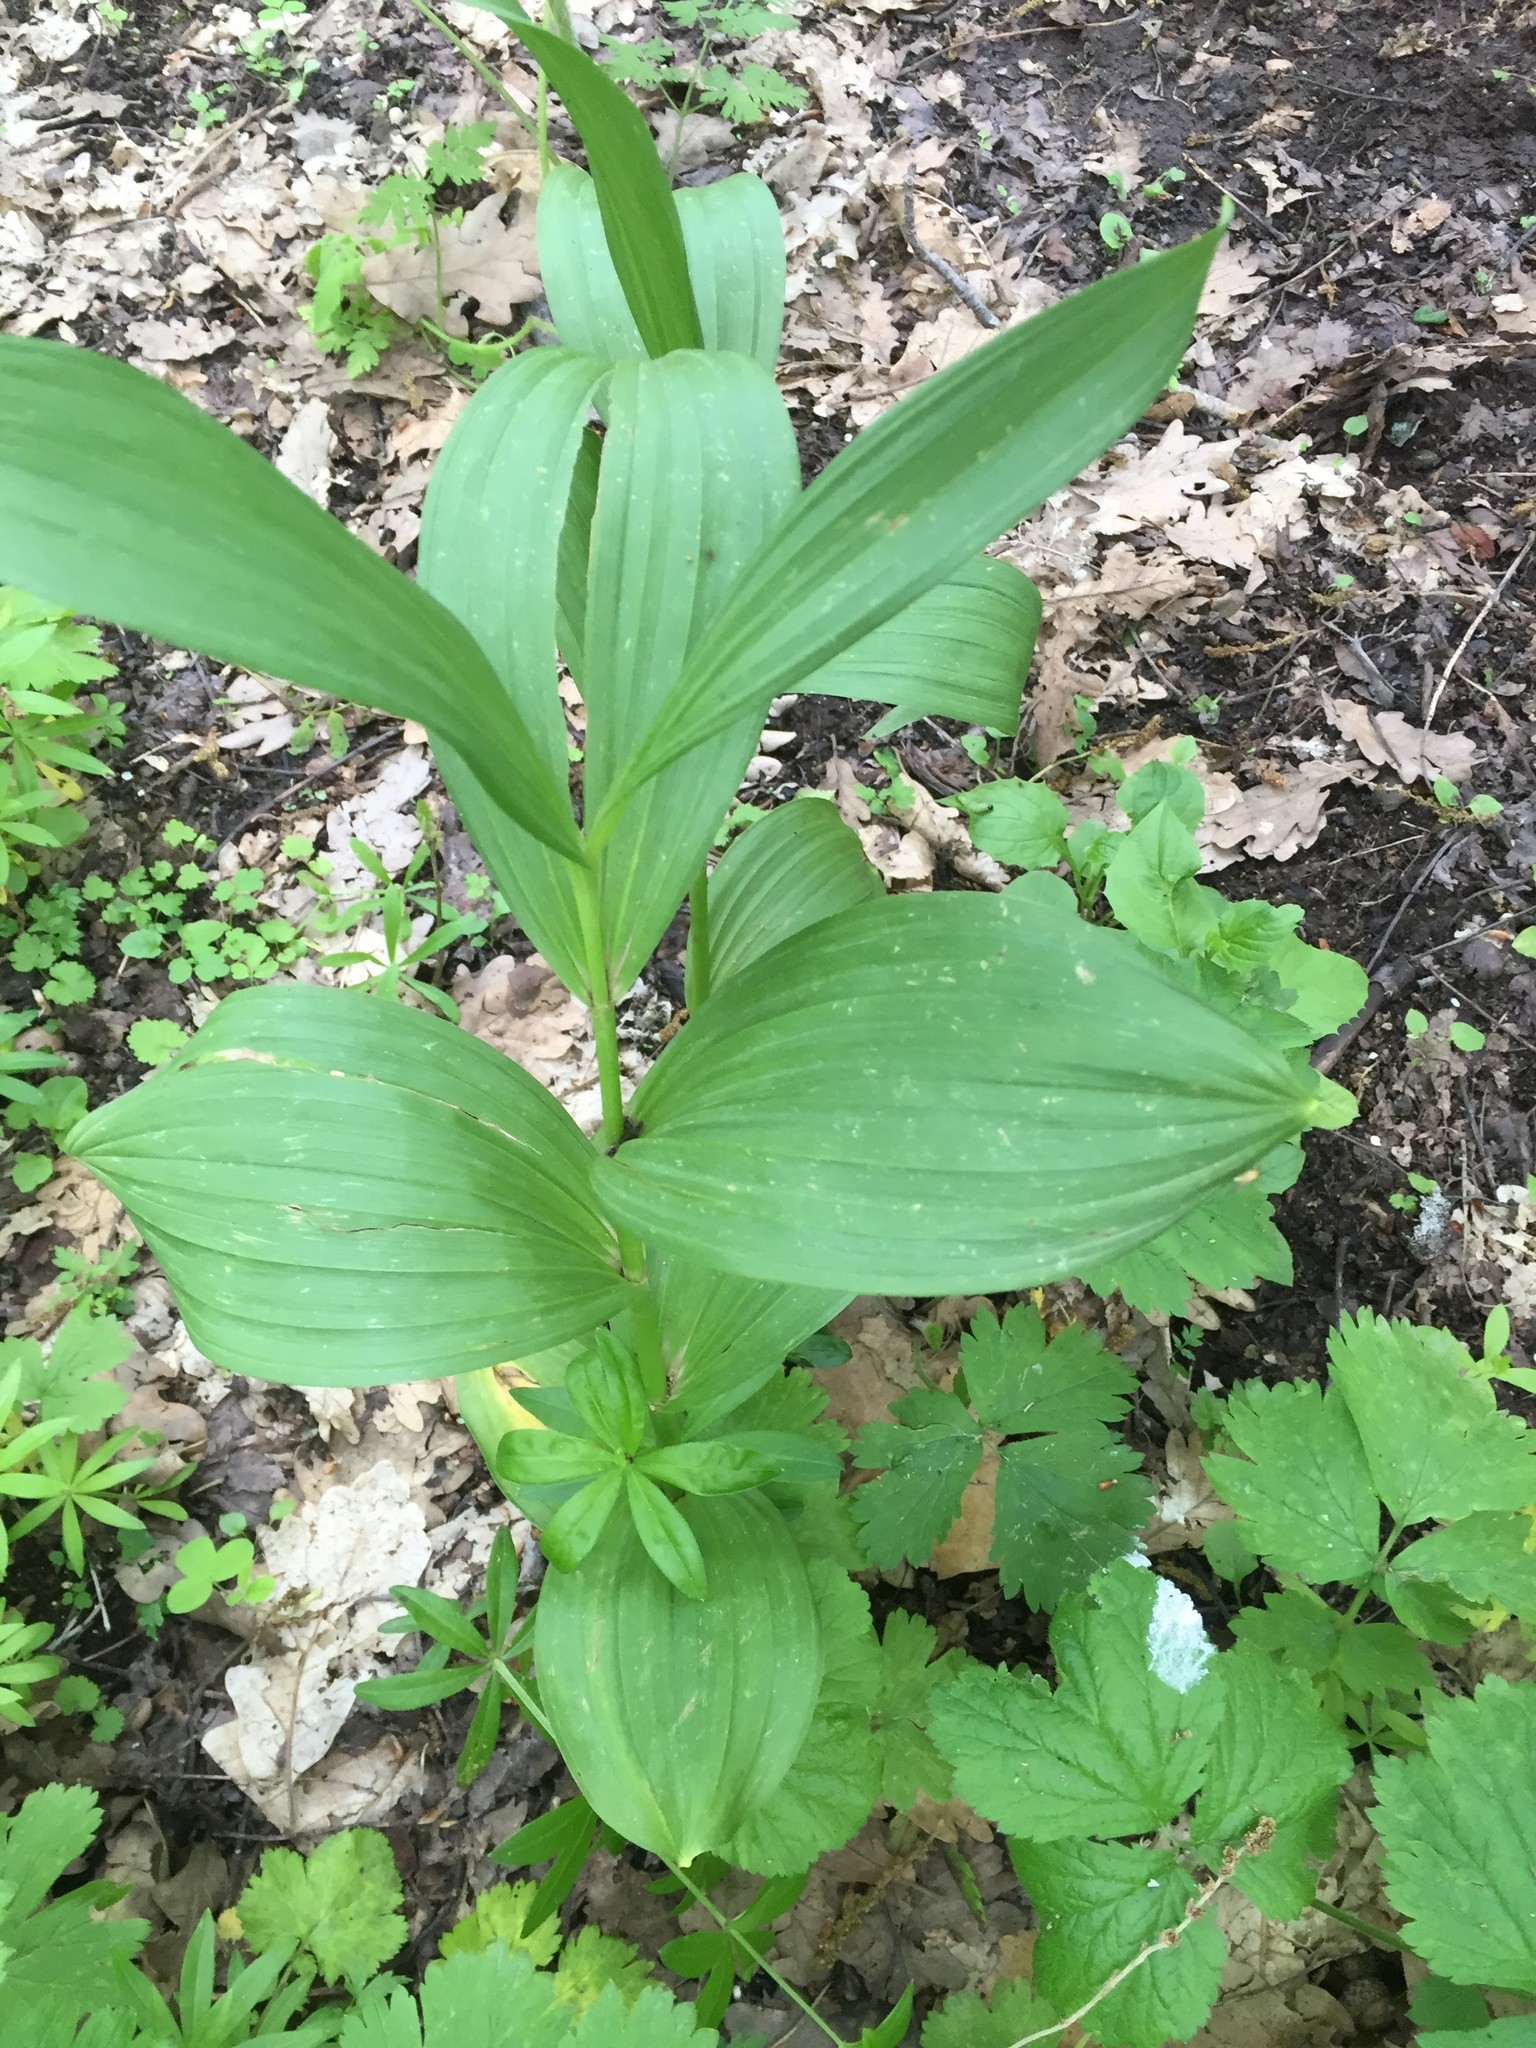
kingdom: Plantae
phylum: Tracheophyta
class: Liliopsida
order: Liliales
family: Melanthiaceae
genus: Veratrum
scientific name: Veratrum album
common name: White veratrum
